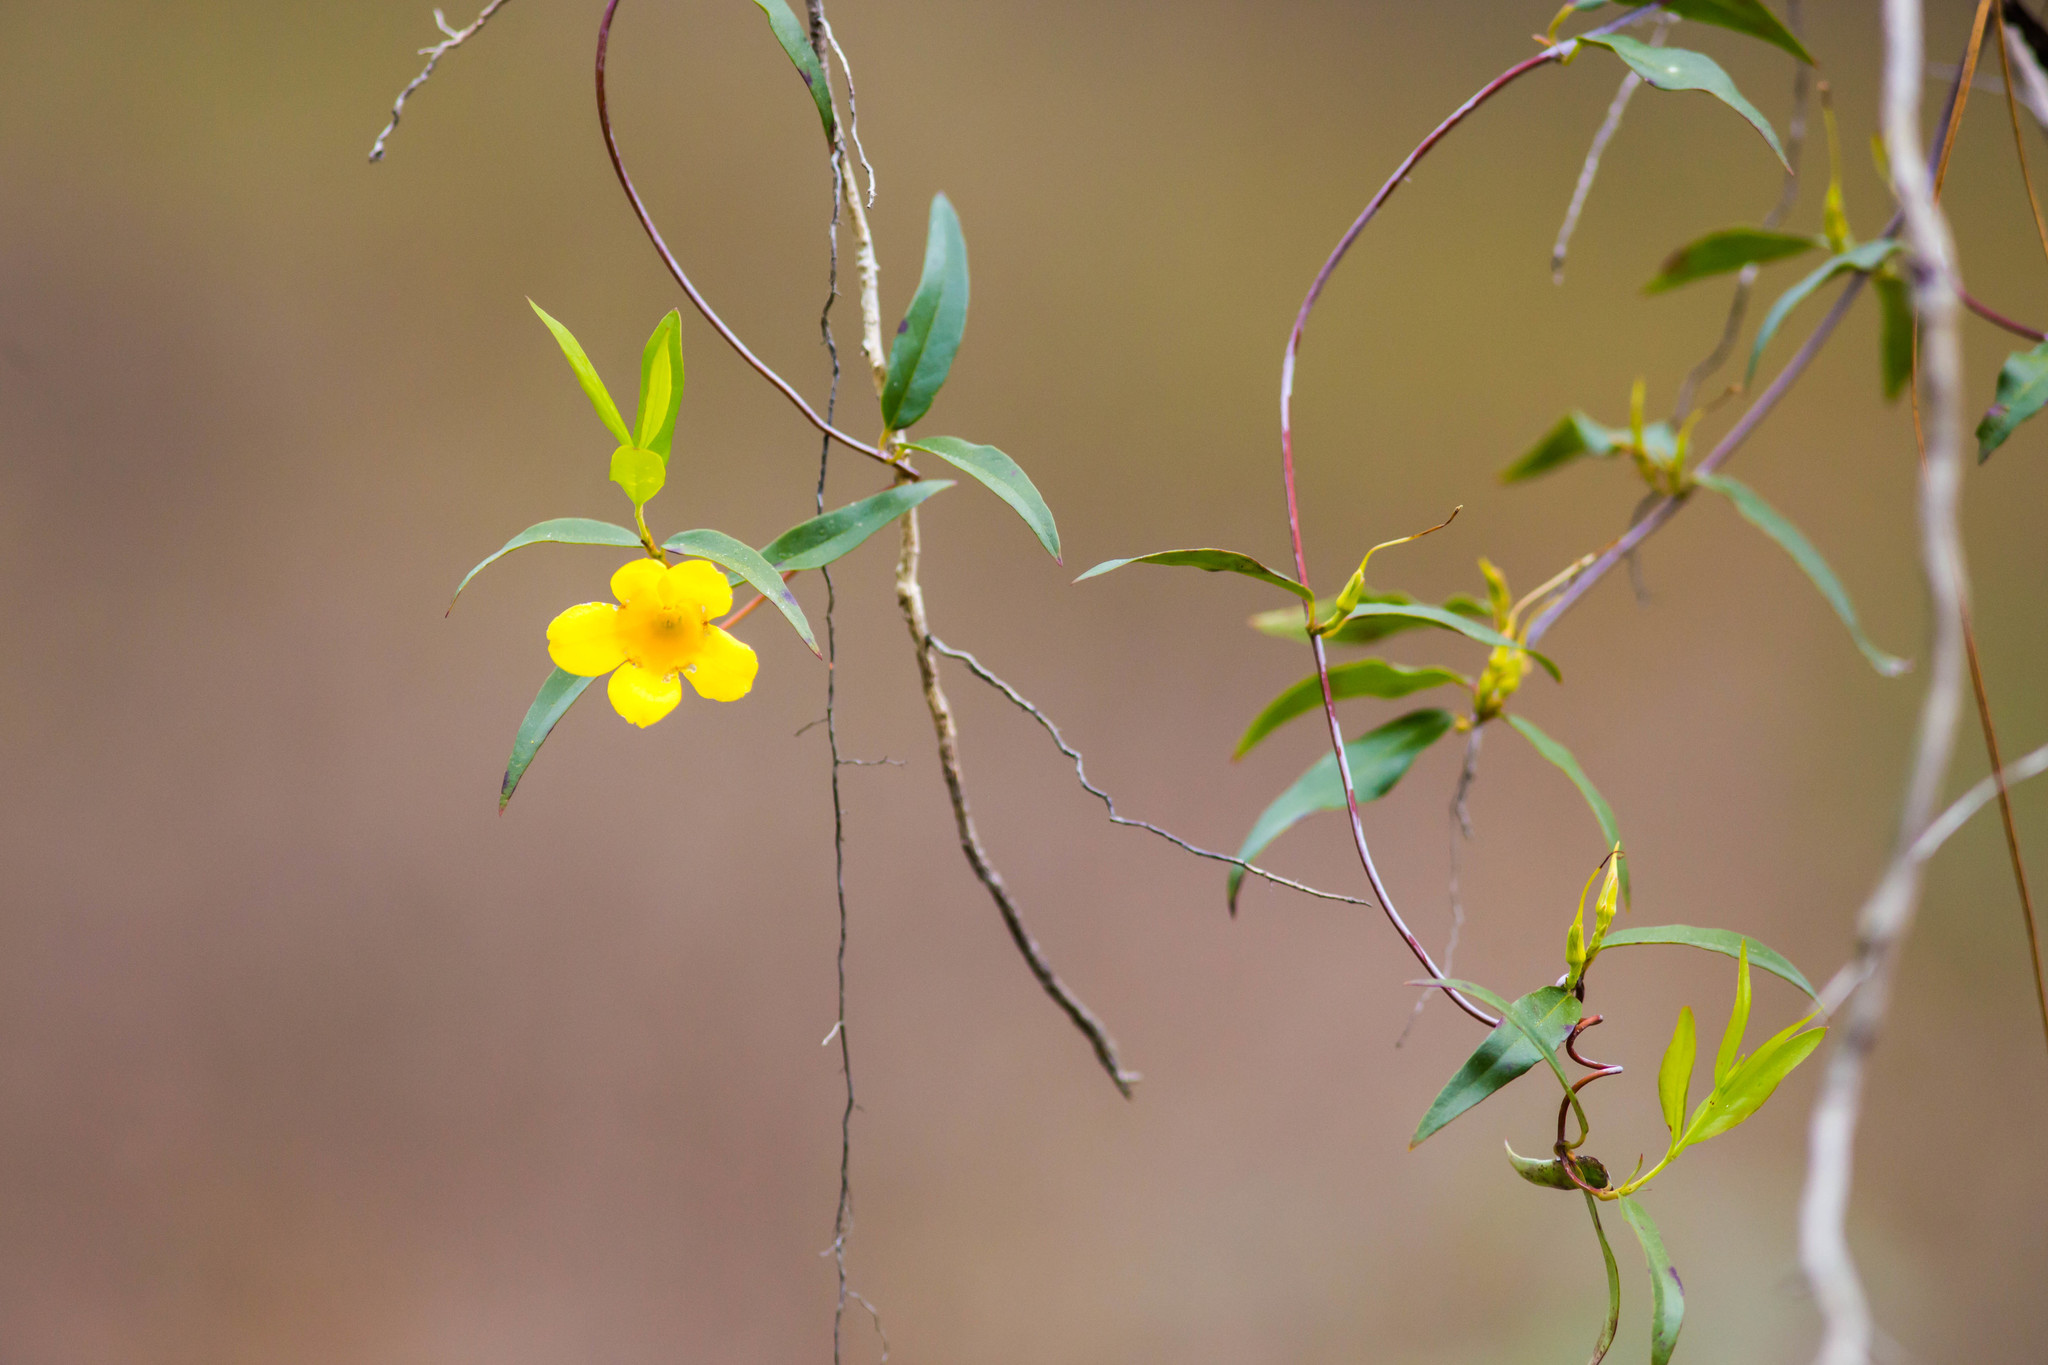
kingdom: Plantae
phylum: Tracheophyta
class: Magnoliopsida
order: Gentianales
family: Gelsemiaceae
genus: Gelsemium
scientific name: Gelsemium sempervirens
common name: Carolina-jasmine
